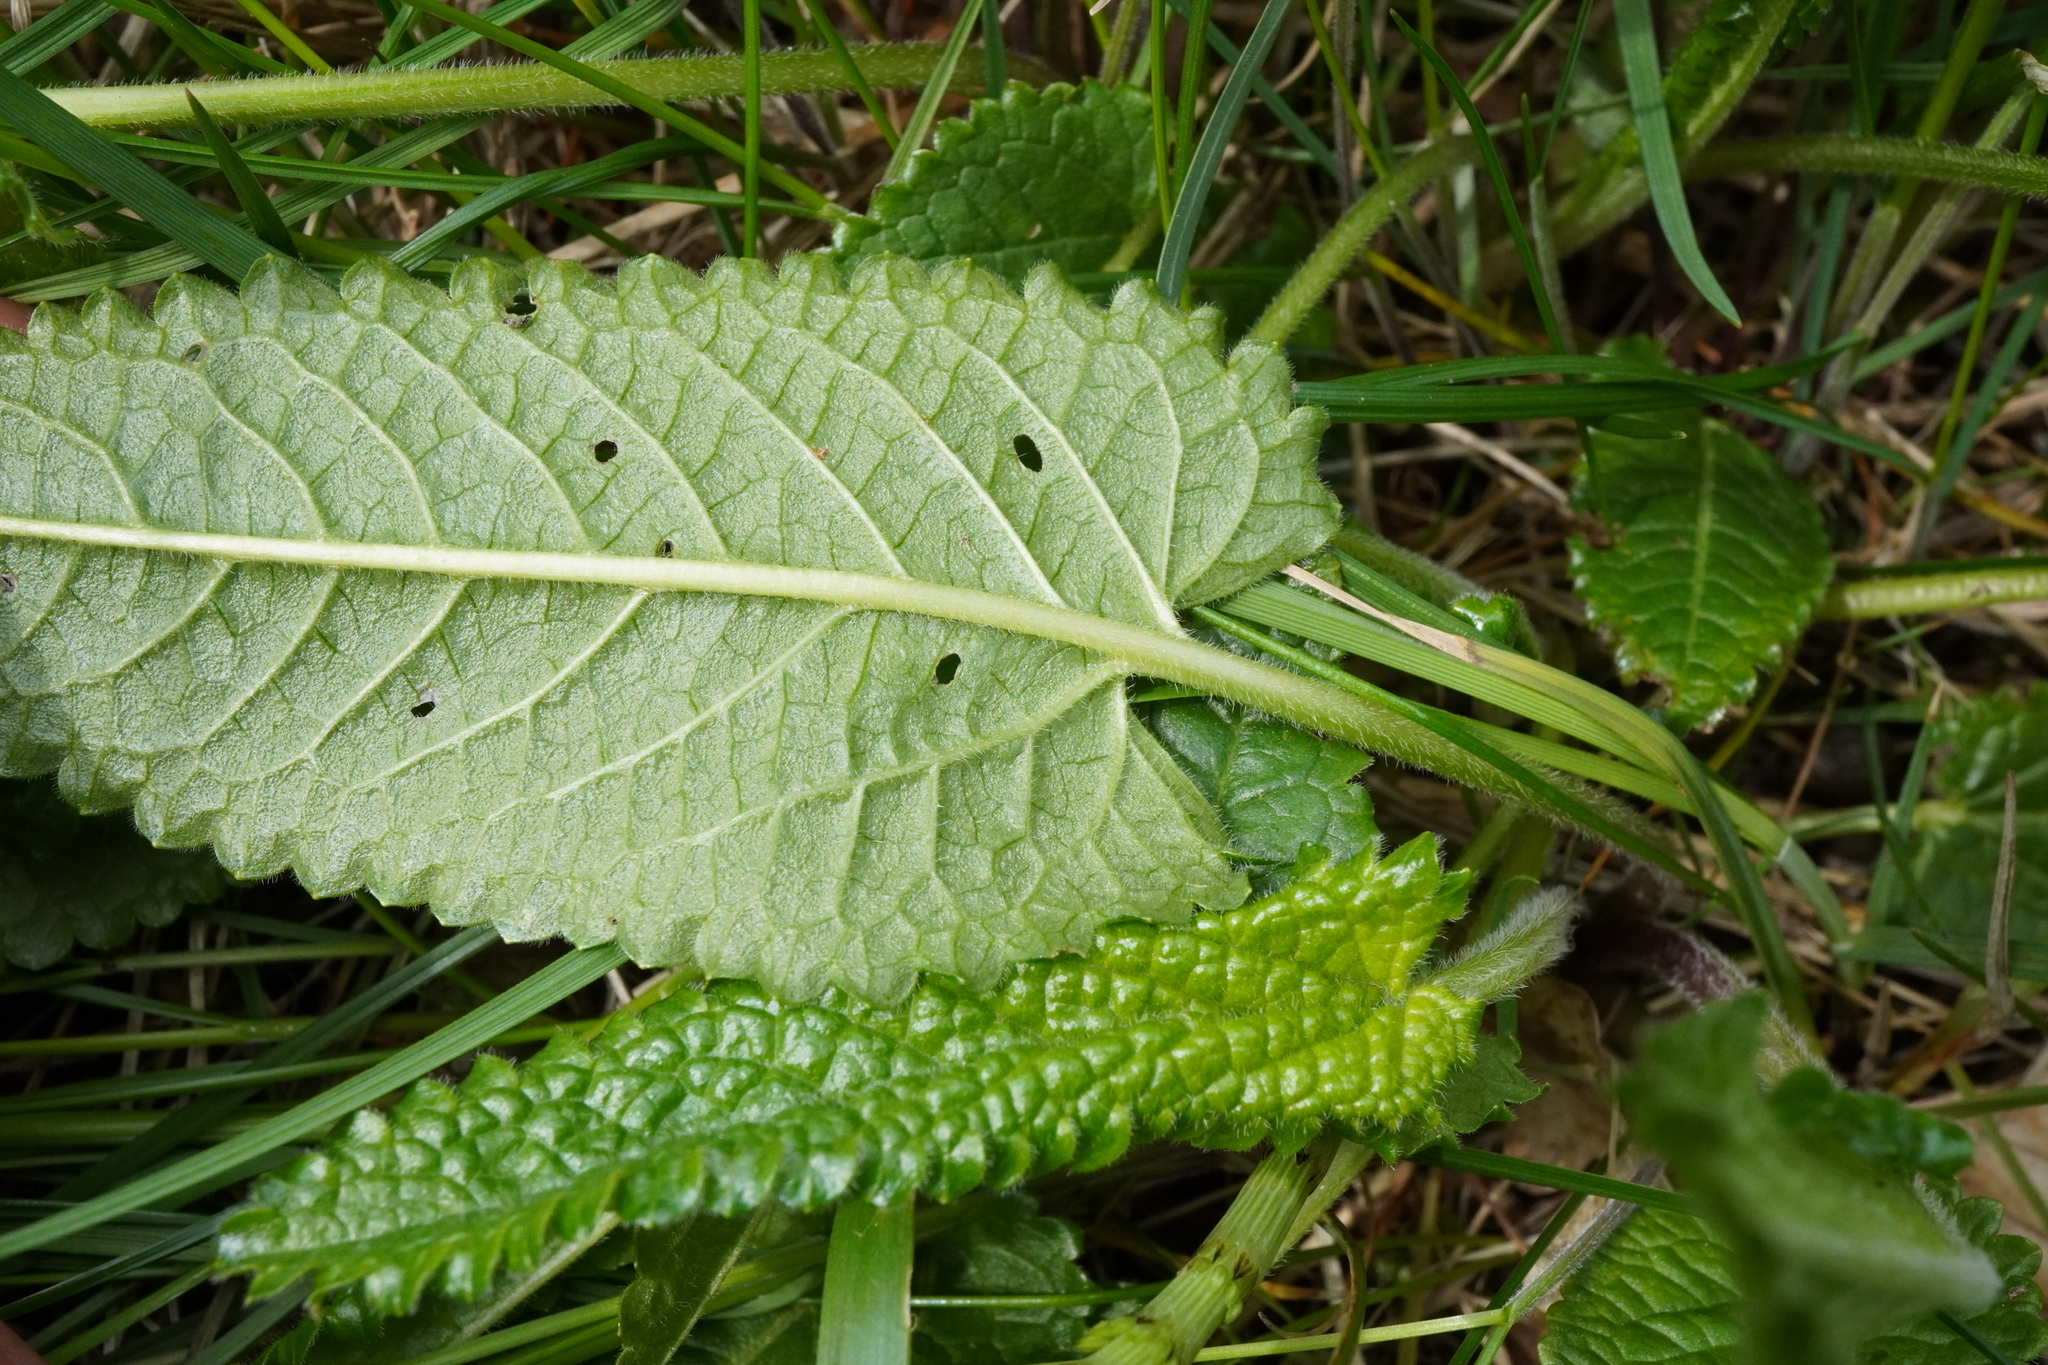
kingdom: Plantae
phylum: Tracheophyta
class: Magnoliopsida
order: Lamiales
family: Lamiaceae
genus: Betonica
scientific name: Betonica officinalis
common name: Bishop's-wort
